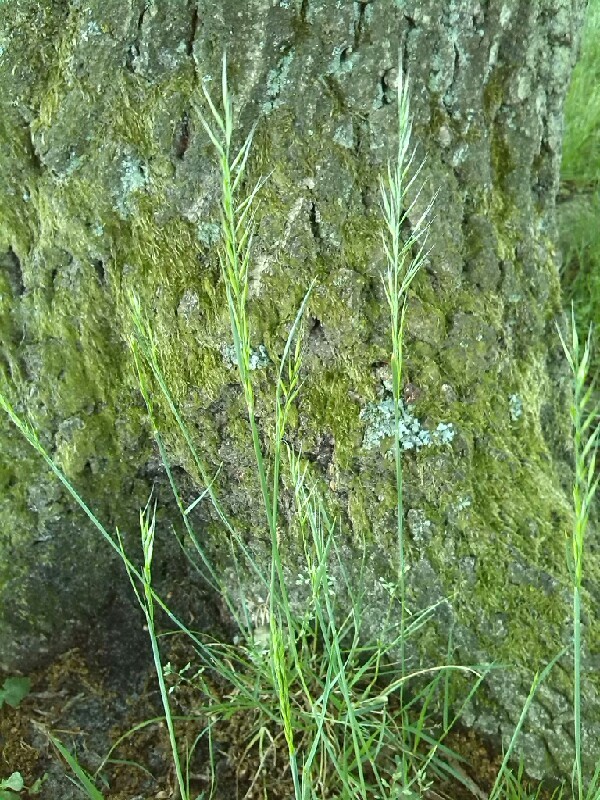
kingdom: Plantae
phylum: Tracheophyta
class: Liliopsida
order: Poales
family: Poaceae
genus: Festuca
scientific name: Festuca myuros
